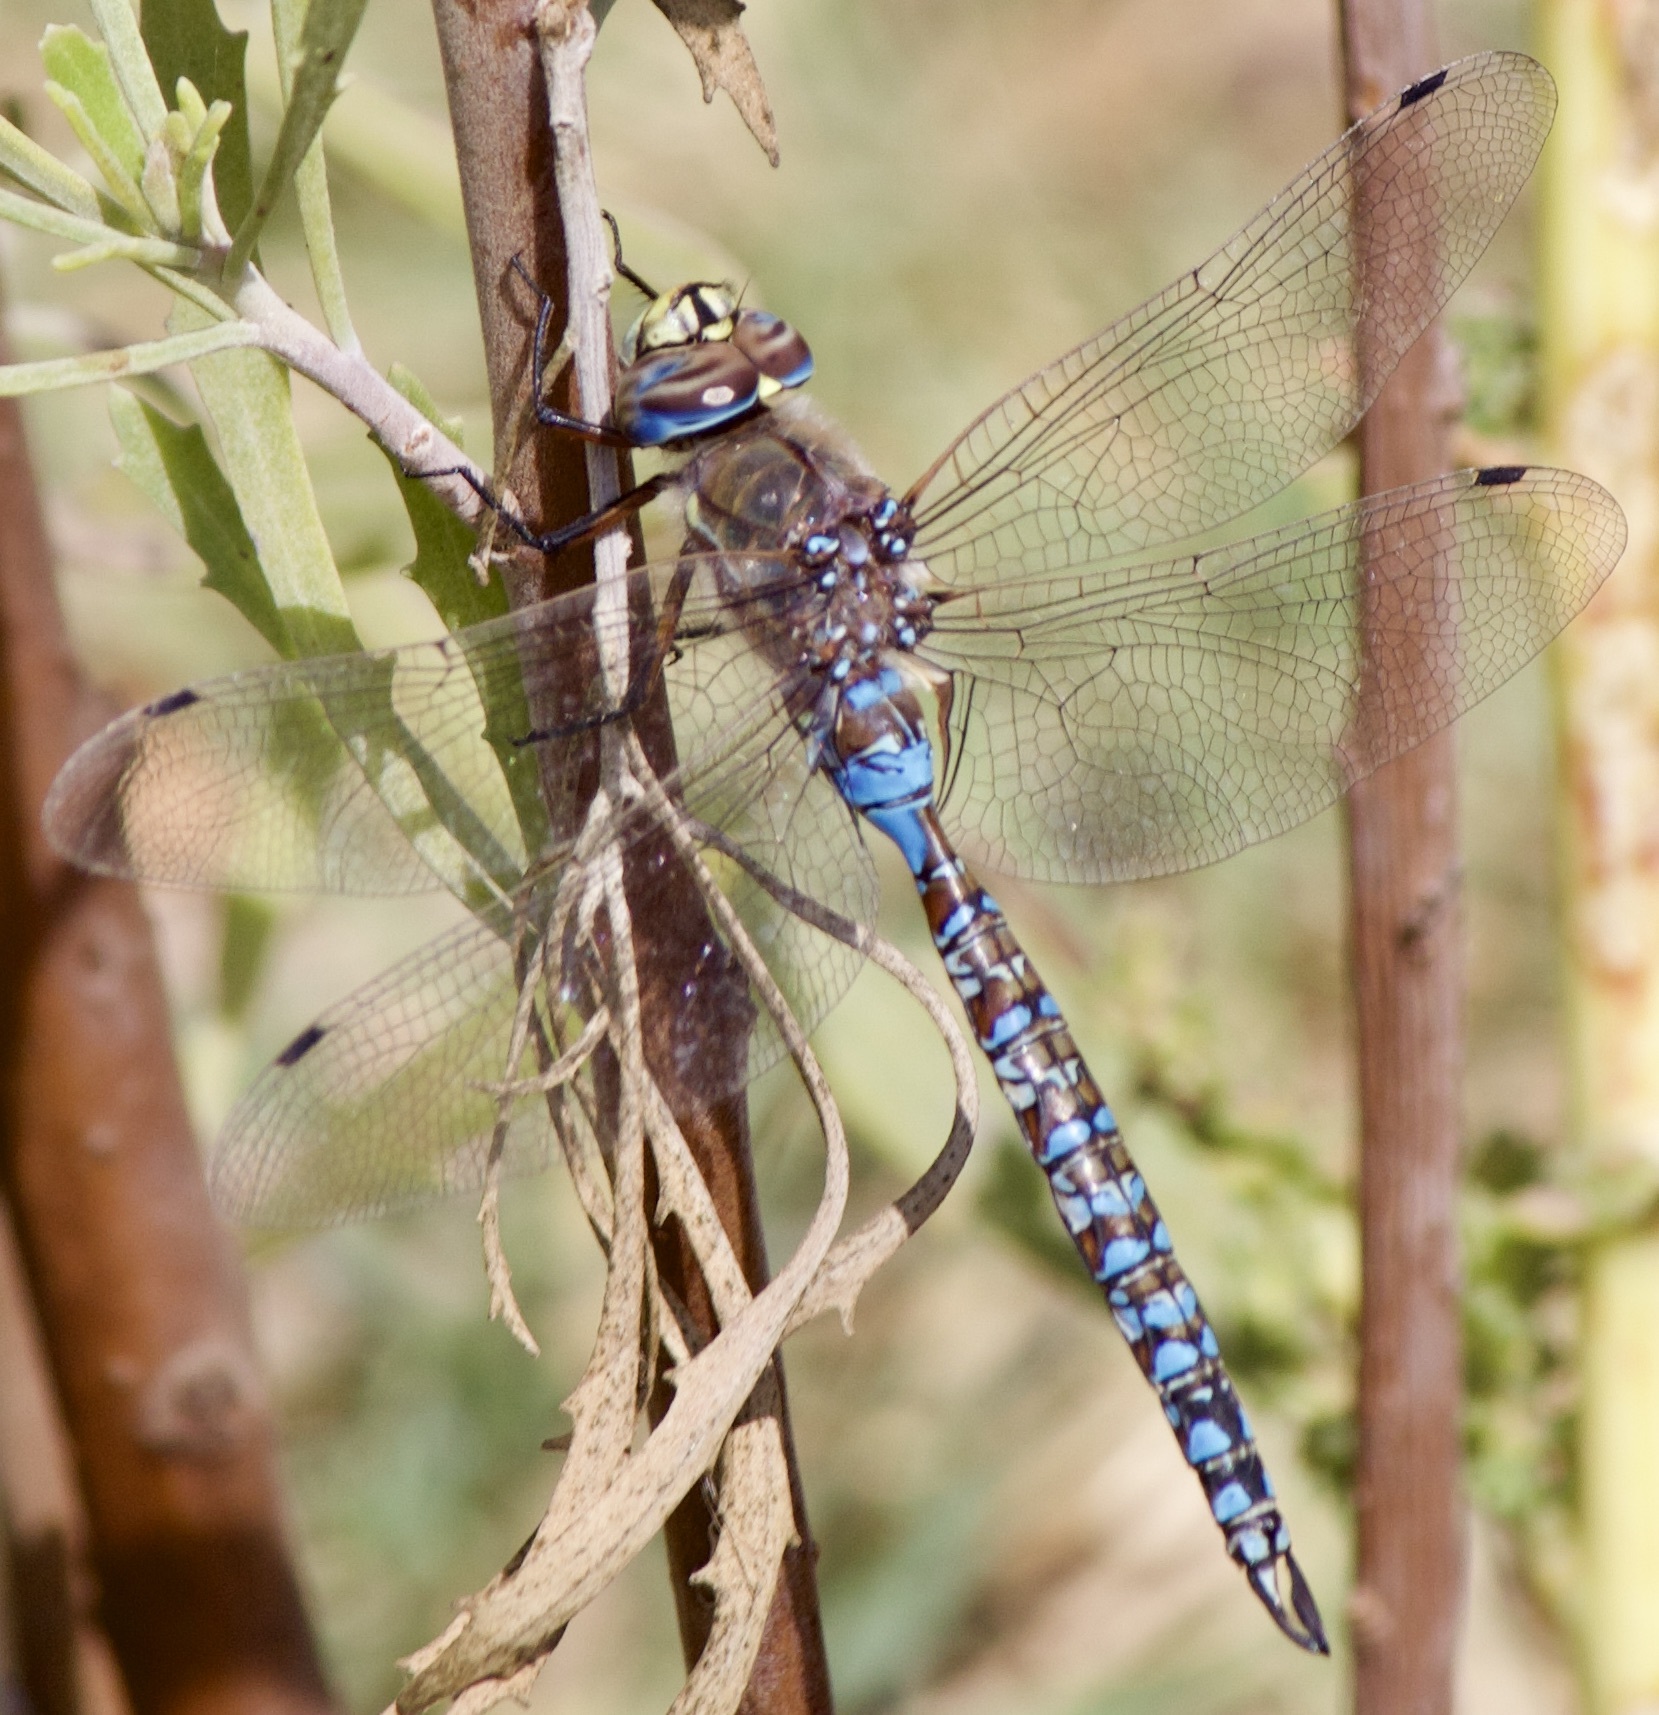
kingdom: Animalia
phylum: Arthropoda
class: Insecta
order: Odonata
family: Aeshnidae
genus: Rhionaeschna
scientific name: Rhionaeschna variegata
